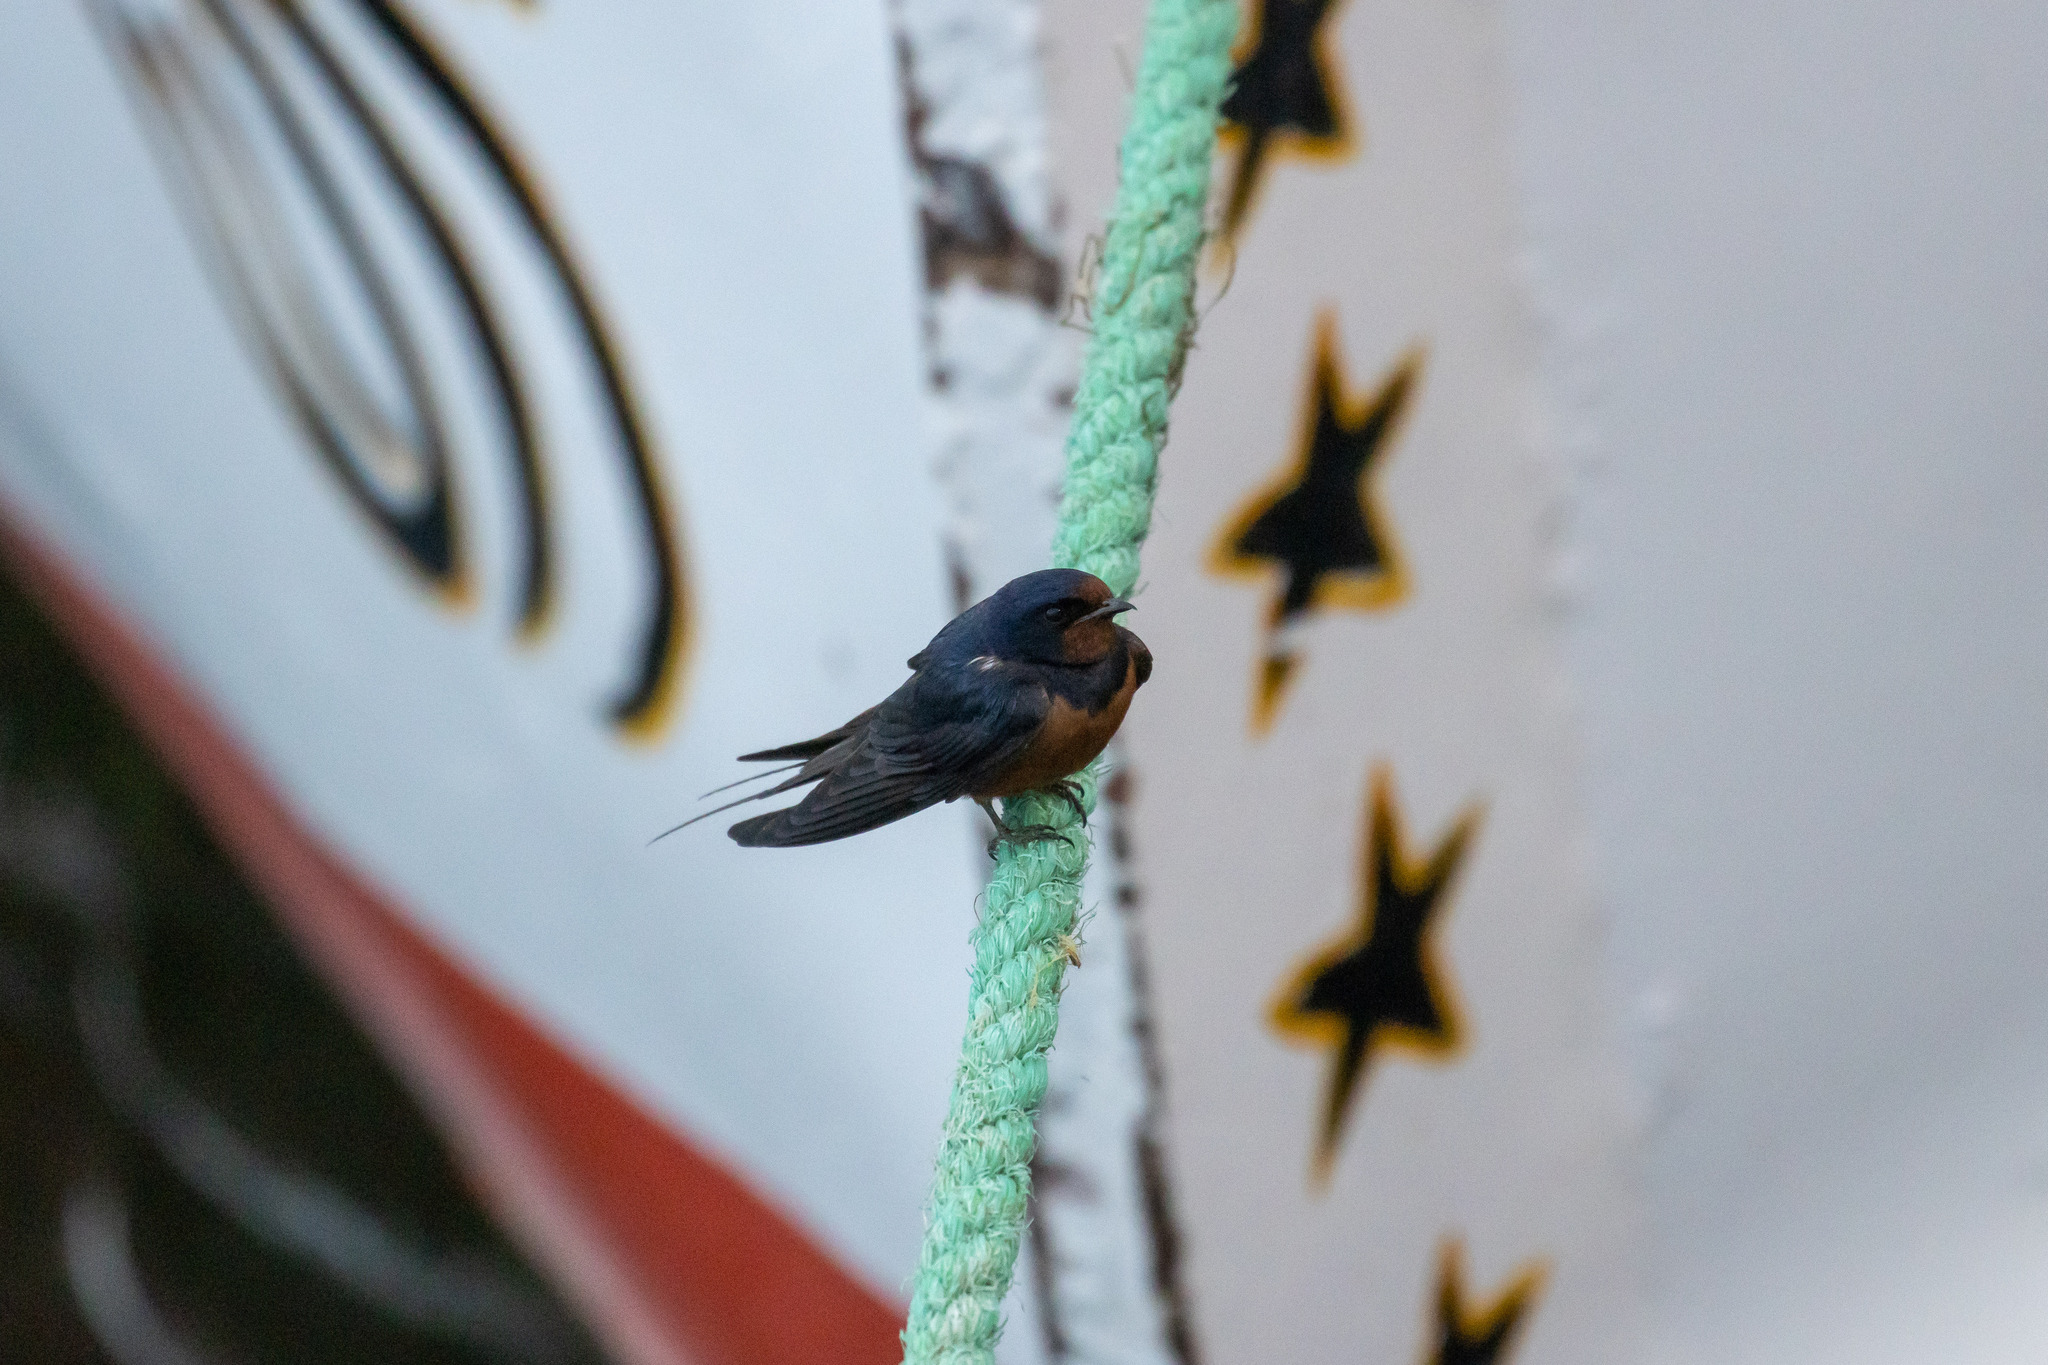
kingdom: Animalia
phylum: Chordata
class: Aves
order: Passeriformes
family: Hirundinidae
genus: Hirundo
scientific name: Hirundo rustica
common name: Barn swallow
